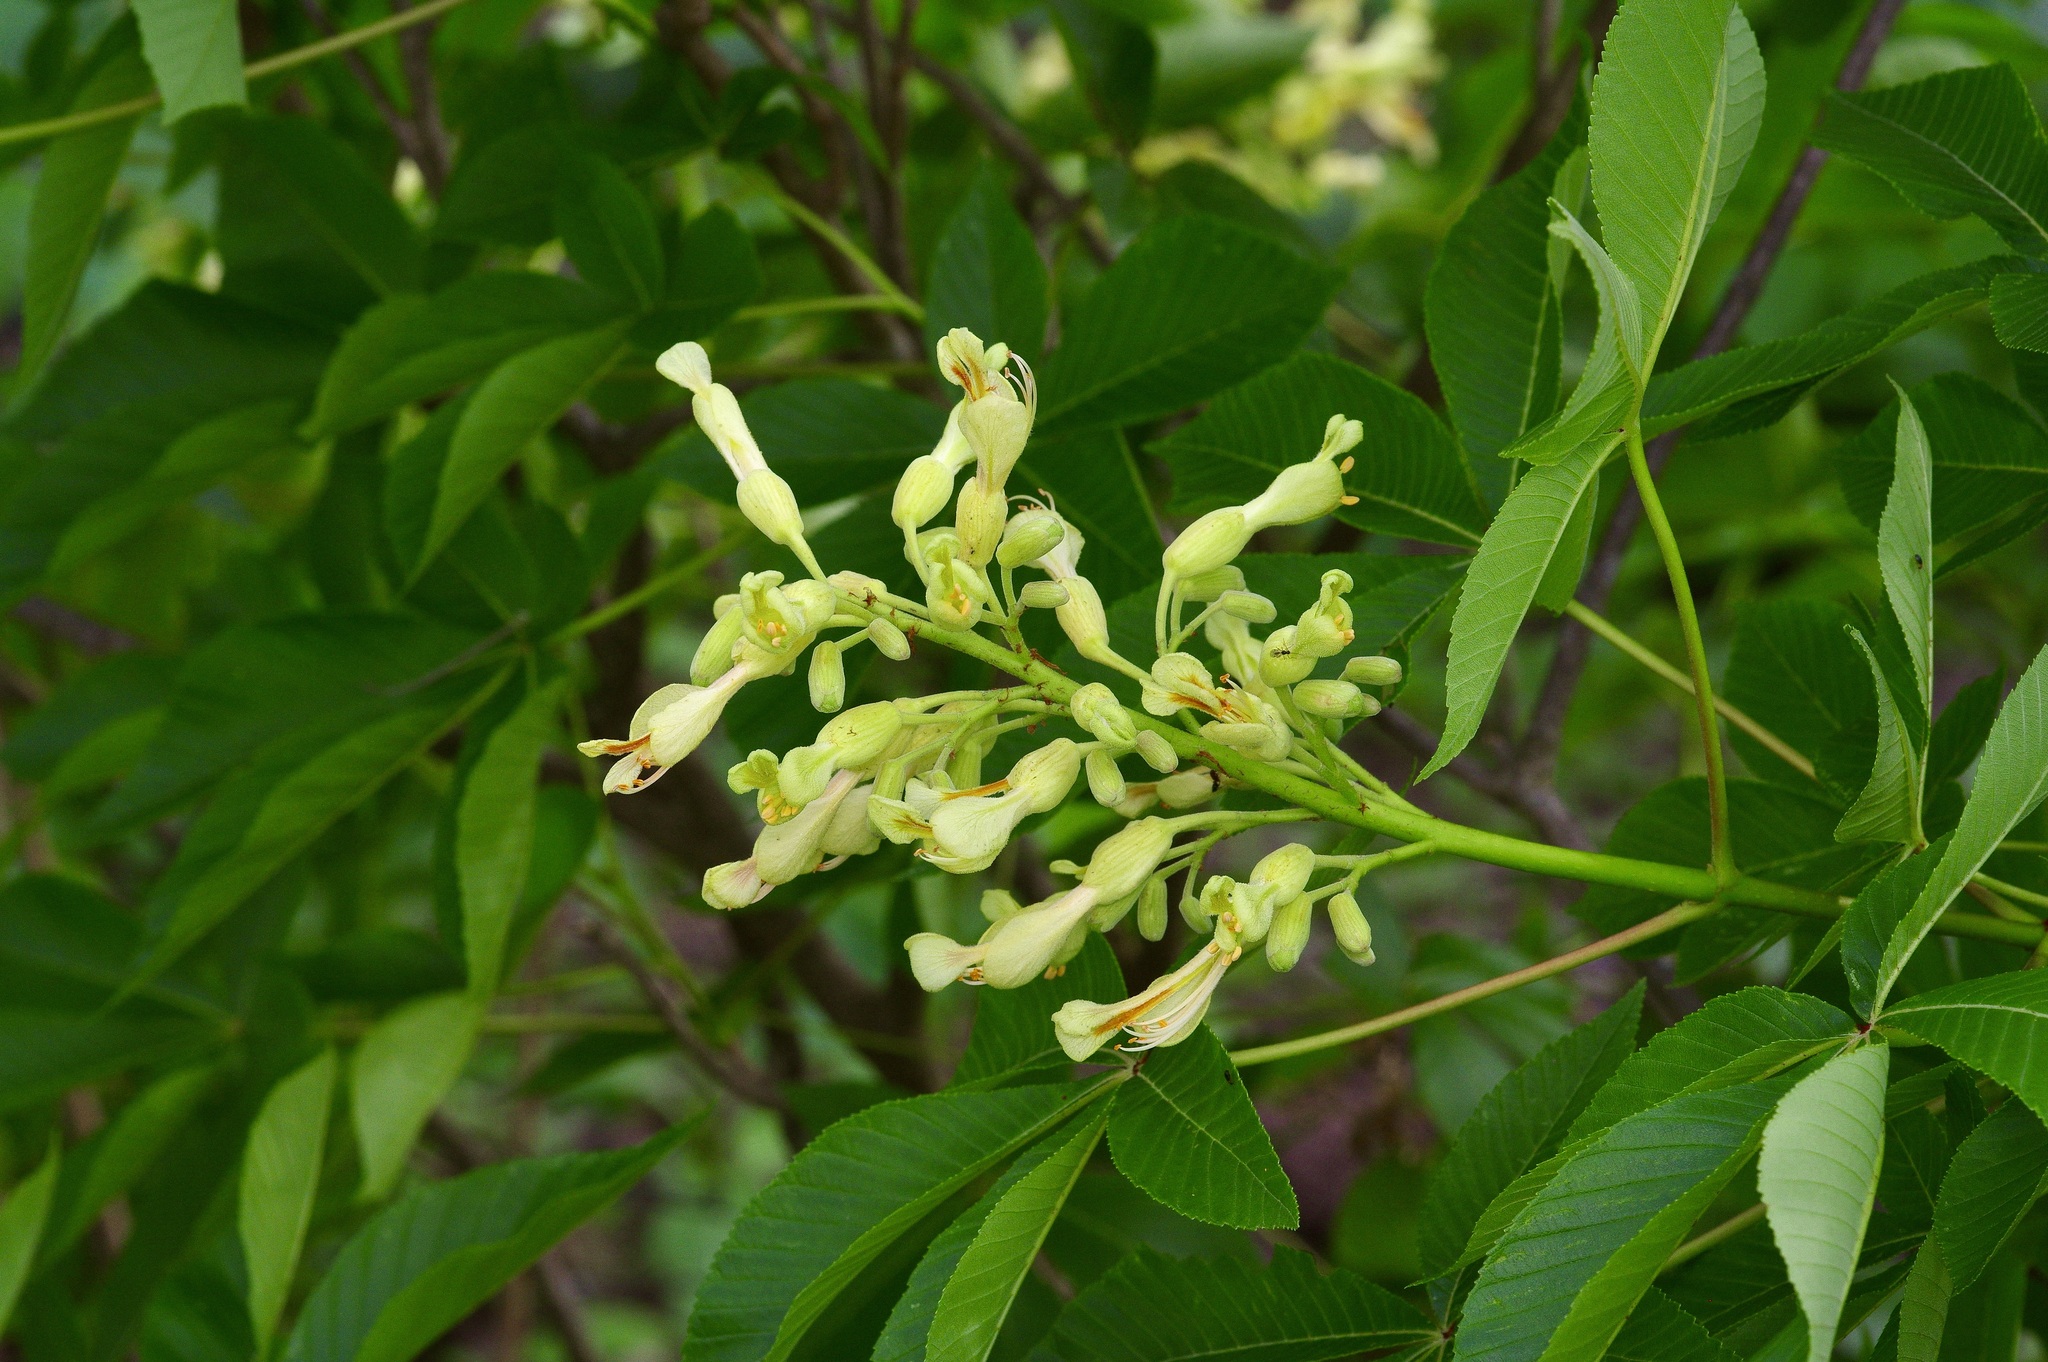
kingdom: Plantae
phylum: Tracheophyta
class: Magnoliopsida
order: Sapindales
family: Sapindaceae
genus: Aesculus
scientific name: Aesculus pavia
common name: Red buckeye
